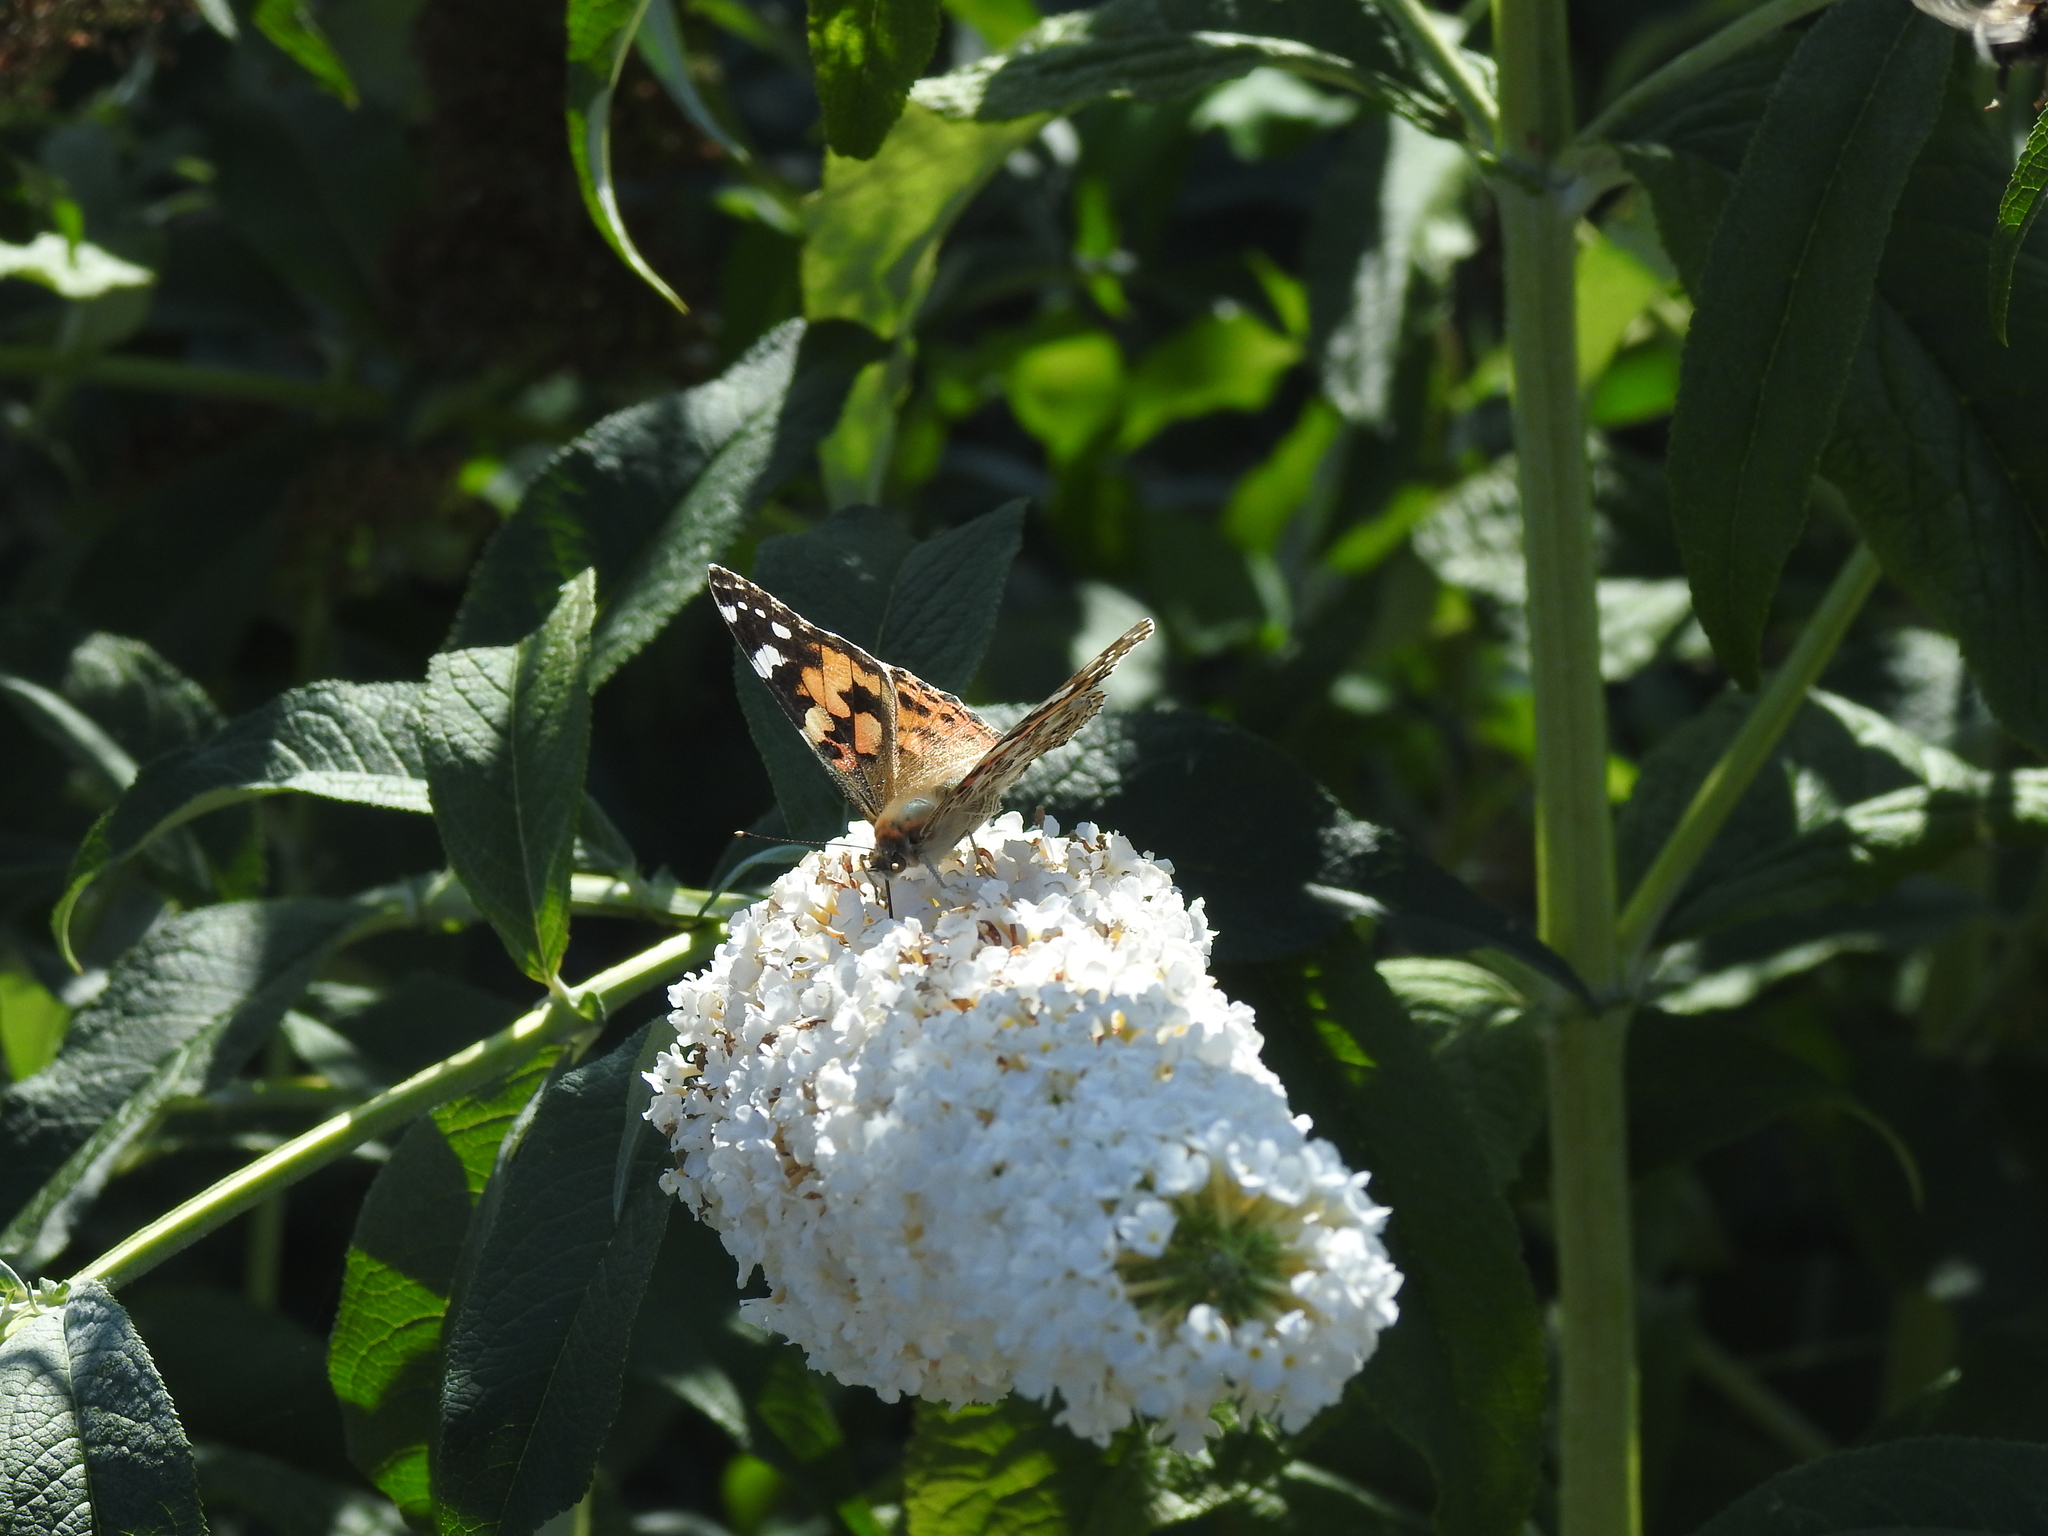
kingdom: Animalia
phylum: Arthropoda
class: Insecta
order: Lepidoptera
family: Nymphalidae
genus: Vanessa
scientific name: Vanessa cardui
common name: Painted lady
